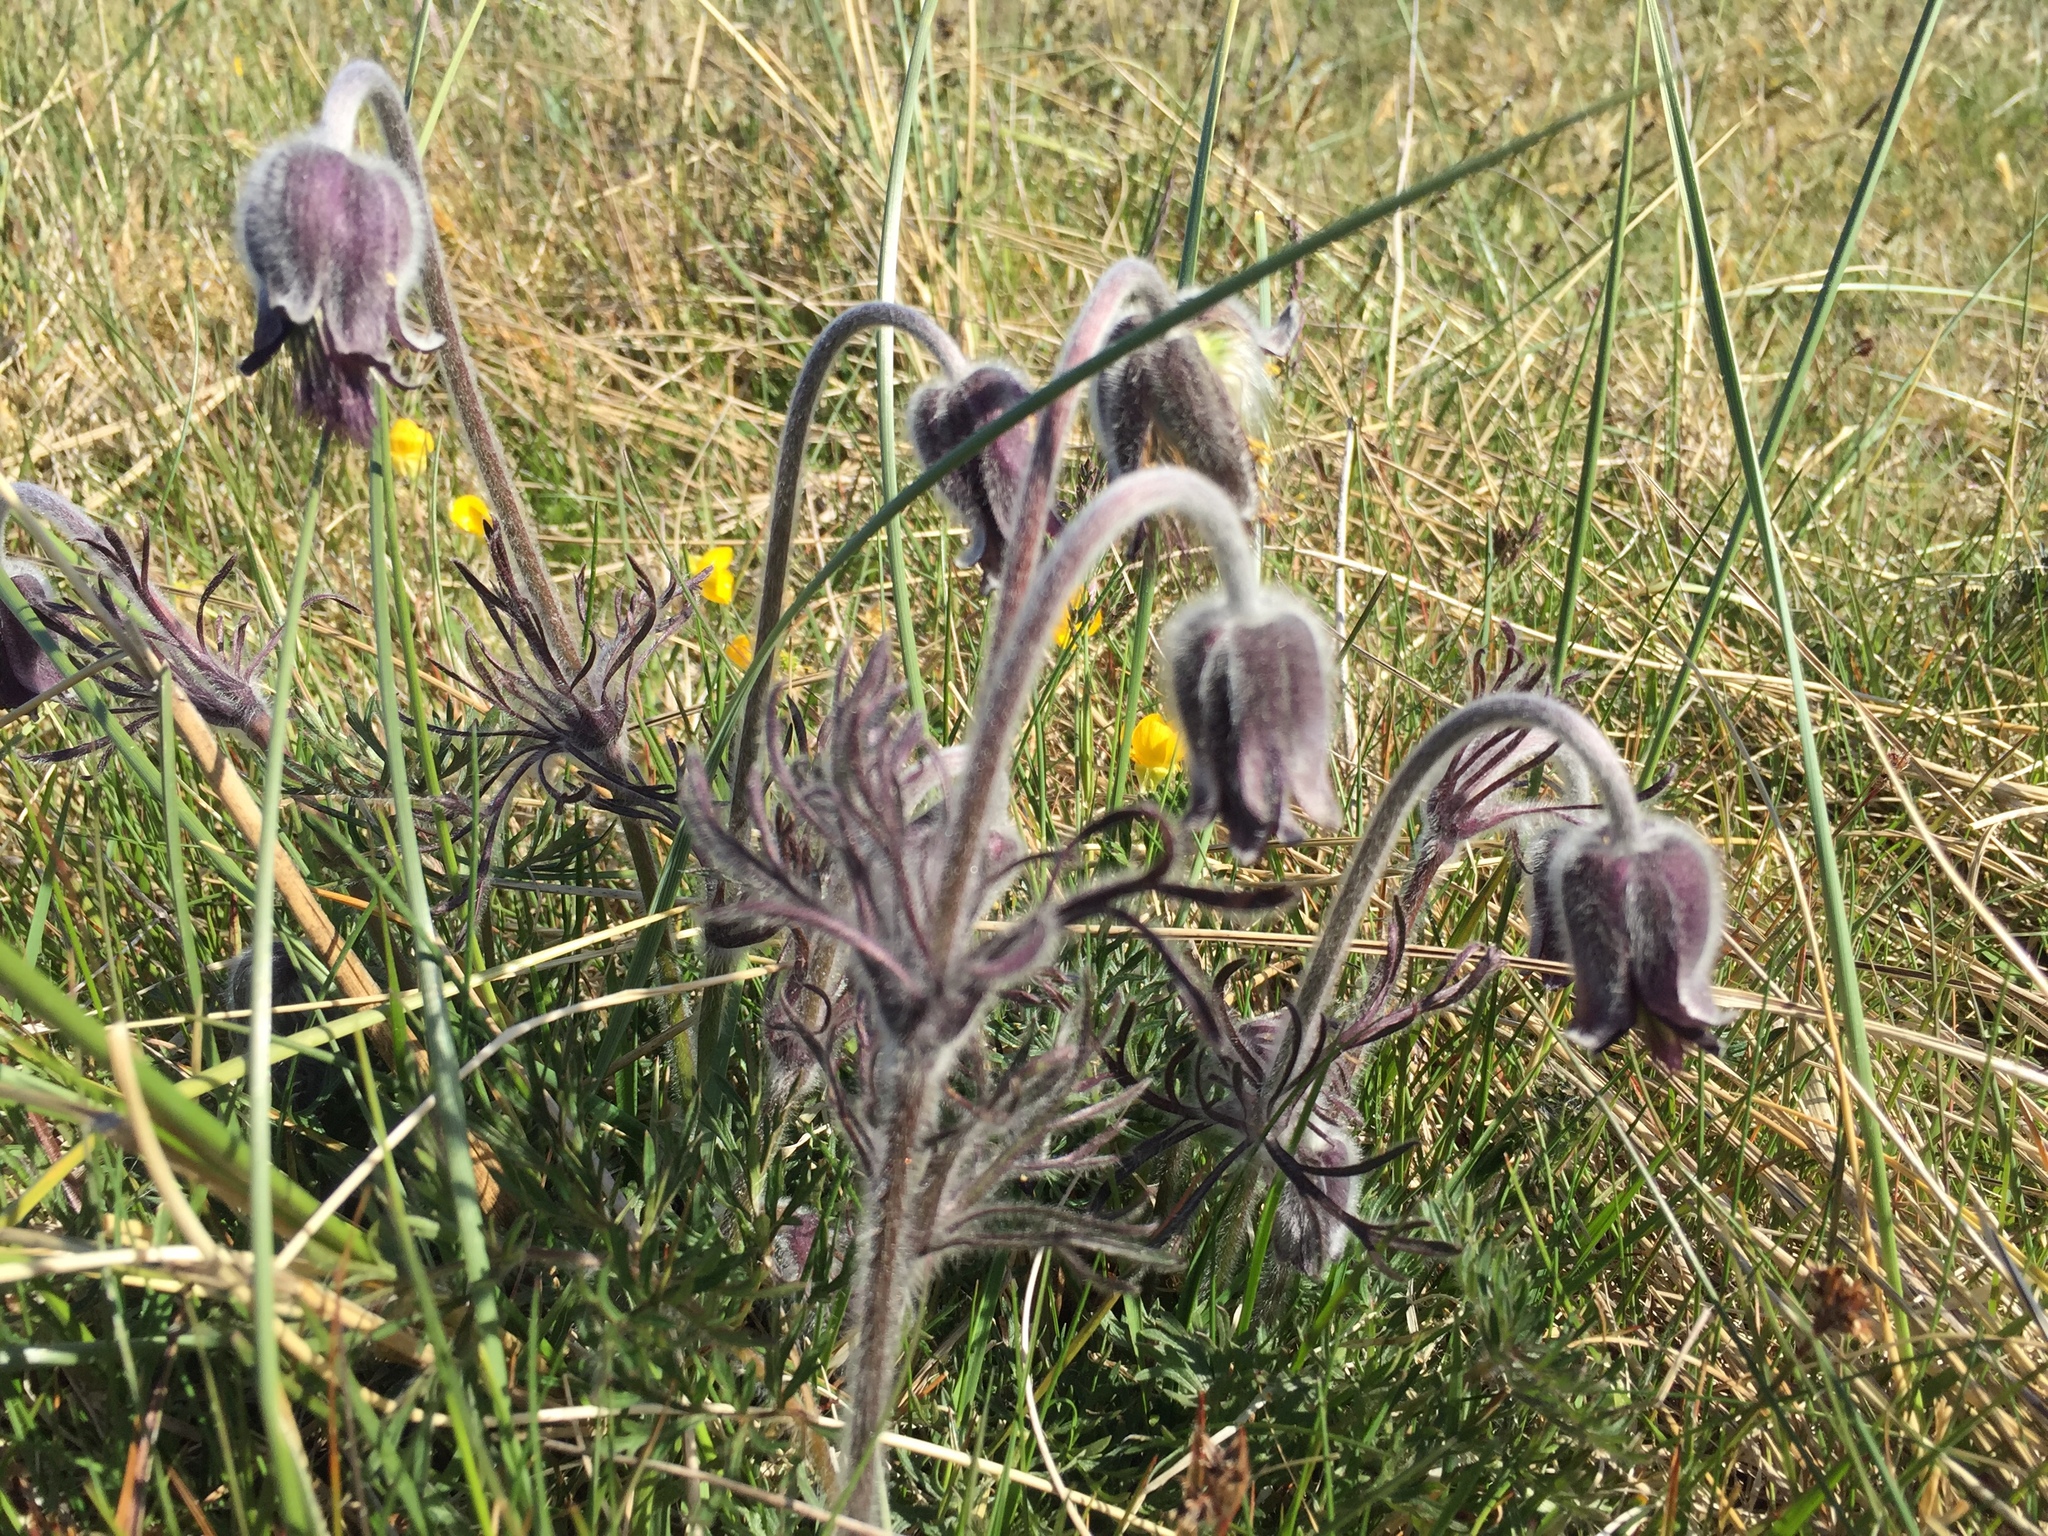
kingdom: Plantae
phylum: Tracheophyta
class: Magnoliopsida
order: Ranunculales
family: Ranunculaceae
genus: Pulsatilla
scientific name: Pulsatilla pratensis
